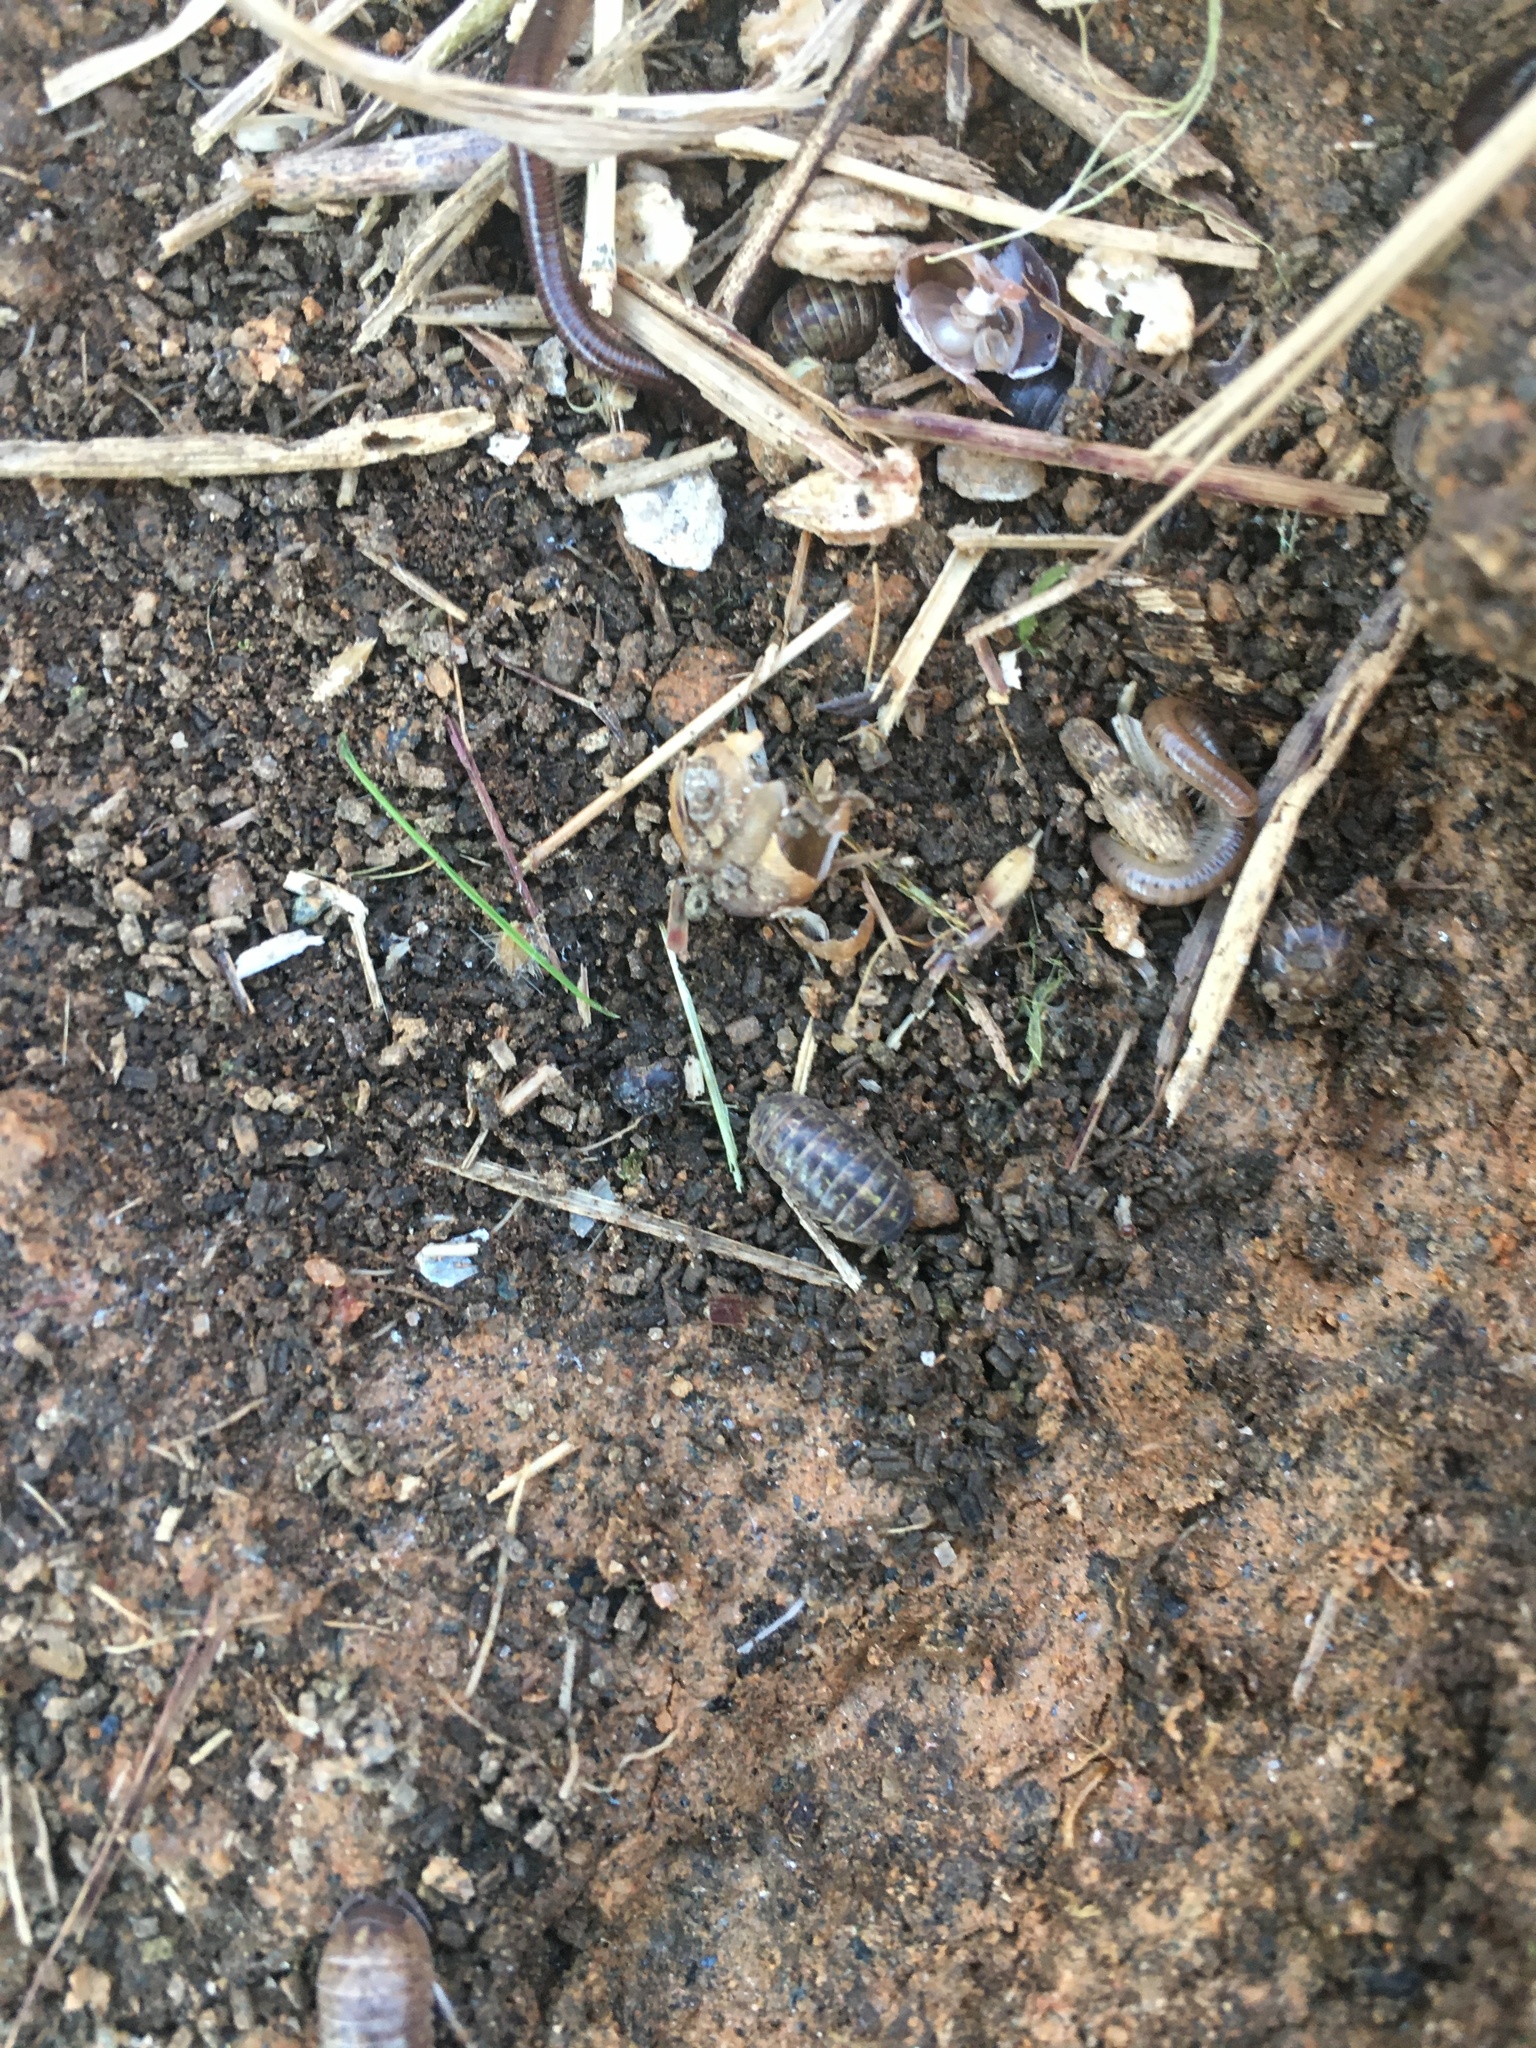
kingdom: Animalia
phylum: Arthropoda
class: Malacostraca
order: Isopoda
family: Armadillidiidae
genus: Armadillidium
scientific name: Armadillidium vulgare
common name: Common pill woodlouse
